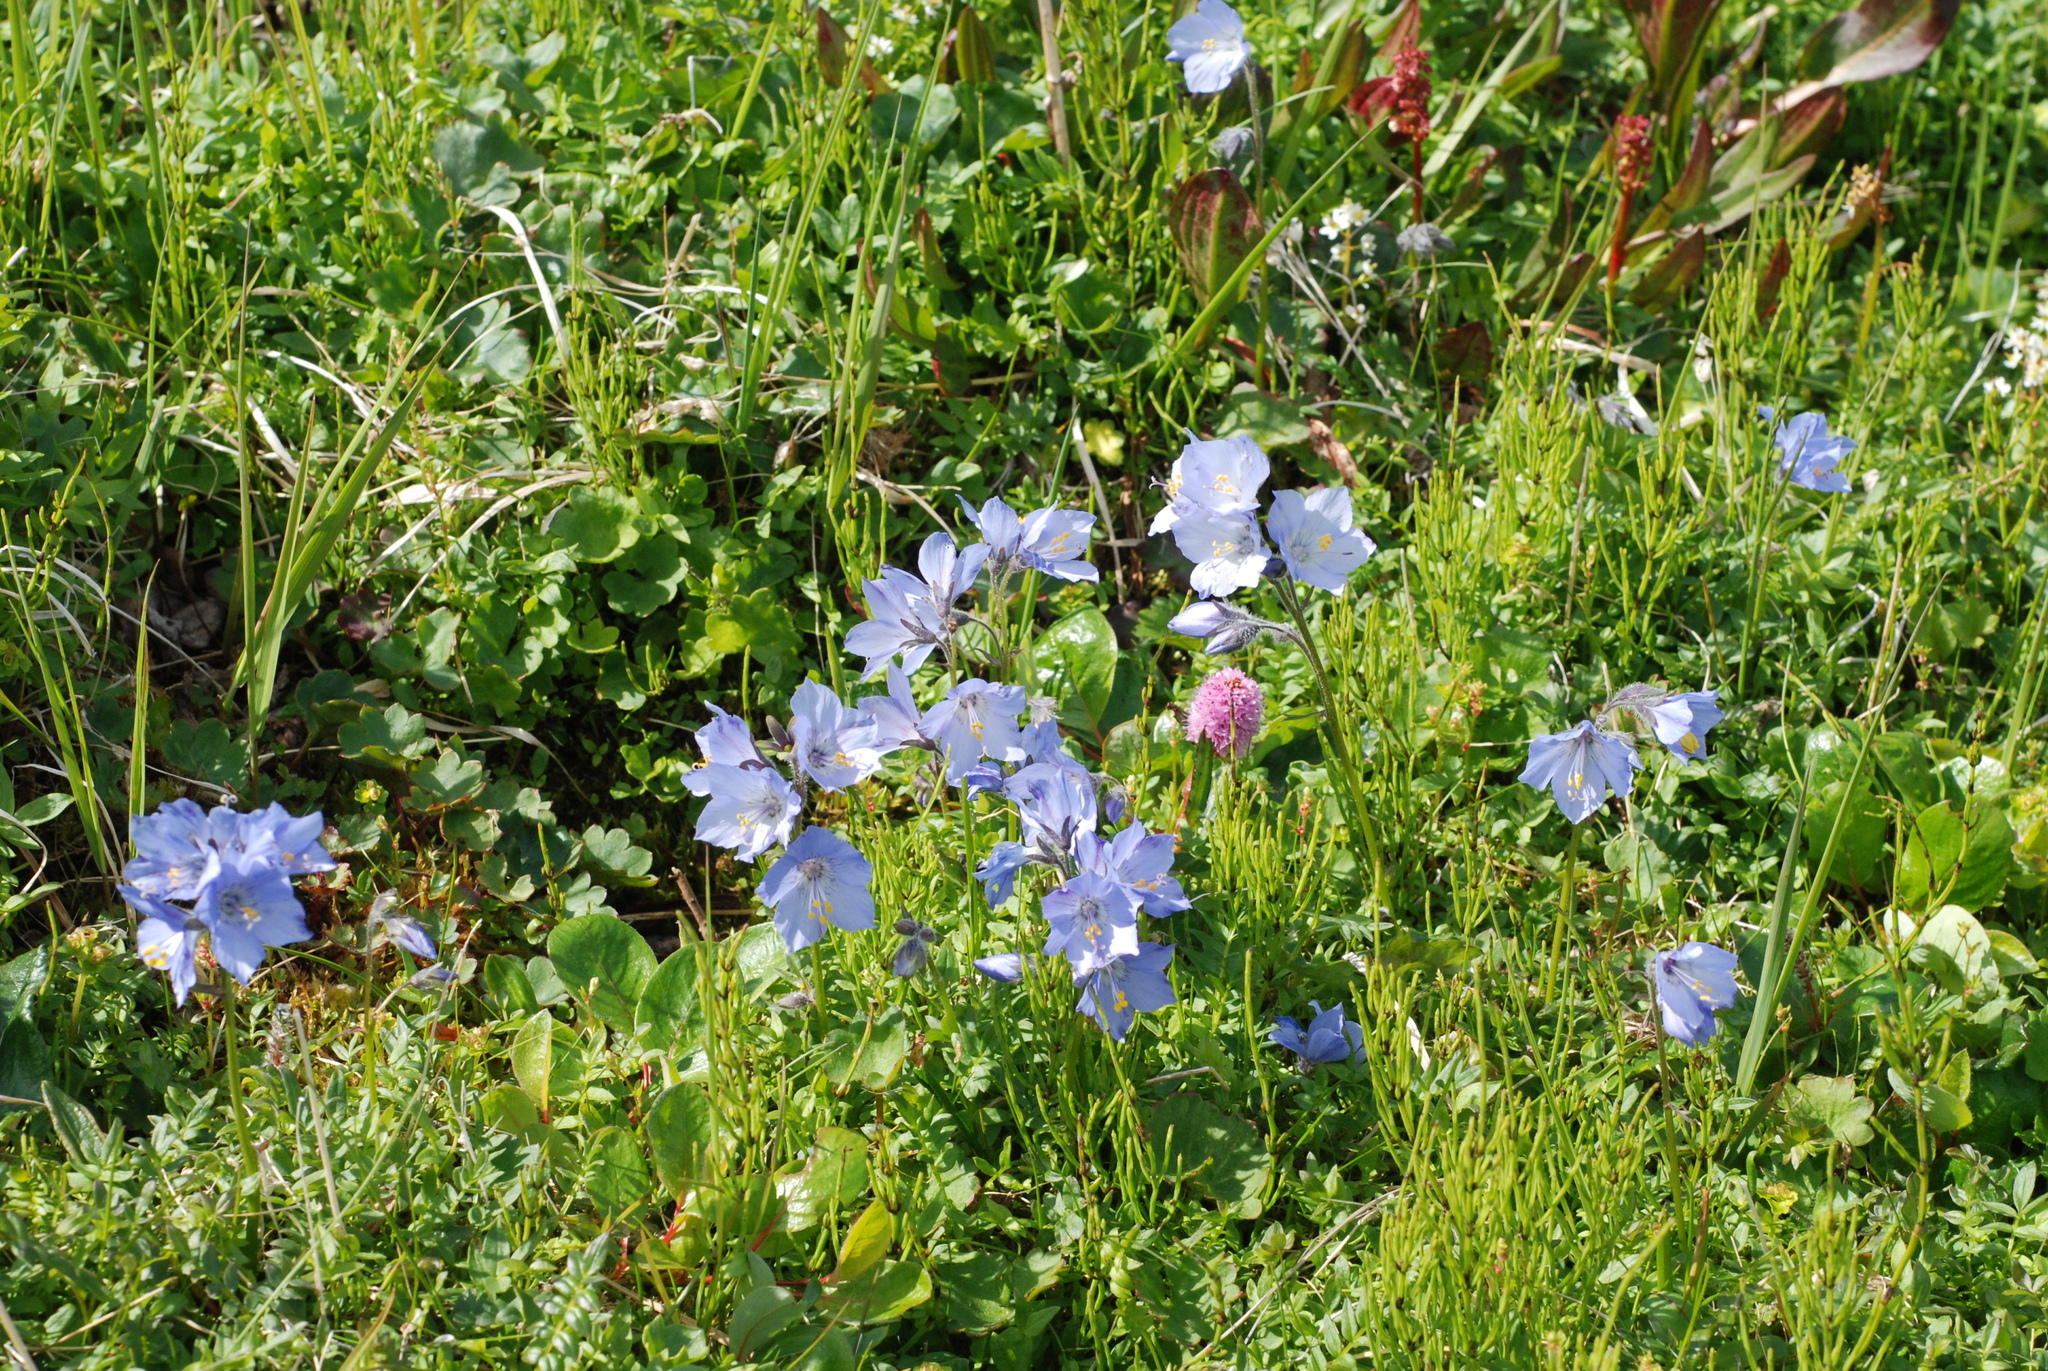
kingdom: Plantae
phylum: Tracheophyta
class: Magnoliopsida
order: Ericales
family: Polemoniaceae
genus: Polemonium
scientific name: Polemonium acutiflorum
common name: Tall jacob's-ladder
